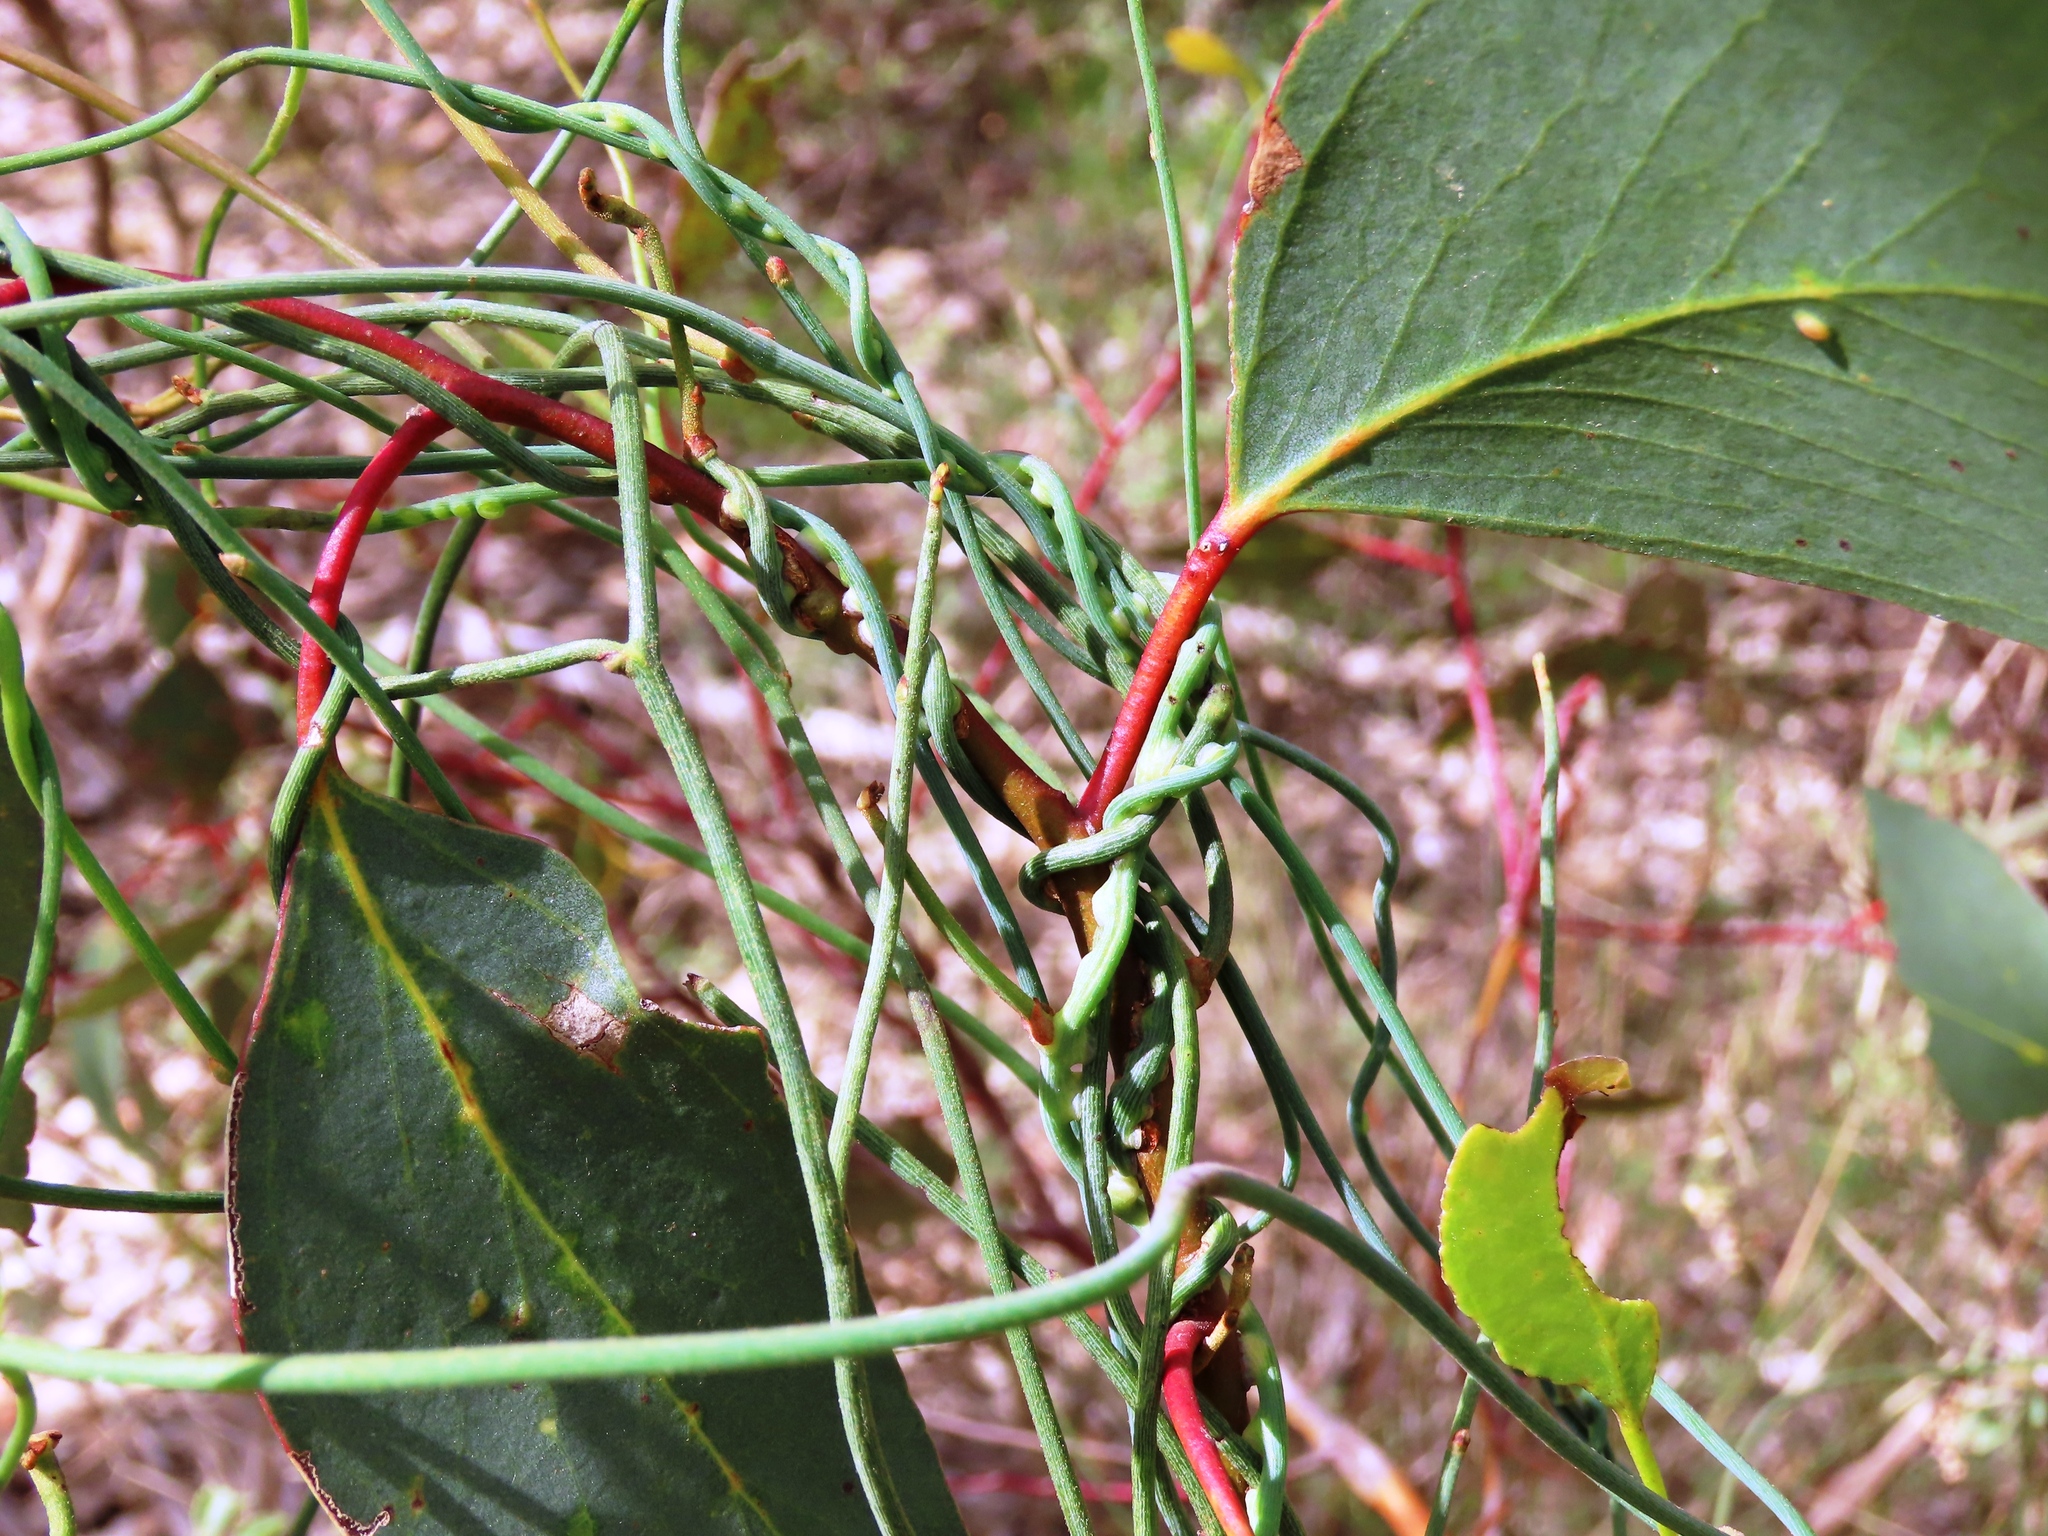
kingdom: Plantae
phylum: Tracheophyta
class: Magnoliopsida
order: Laurales
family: Lauraceae
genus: Cassytha
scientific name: Cassytha melantha
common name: Mallee stranglevine
